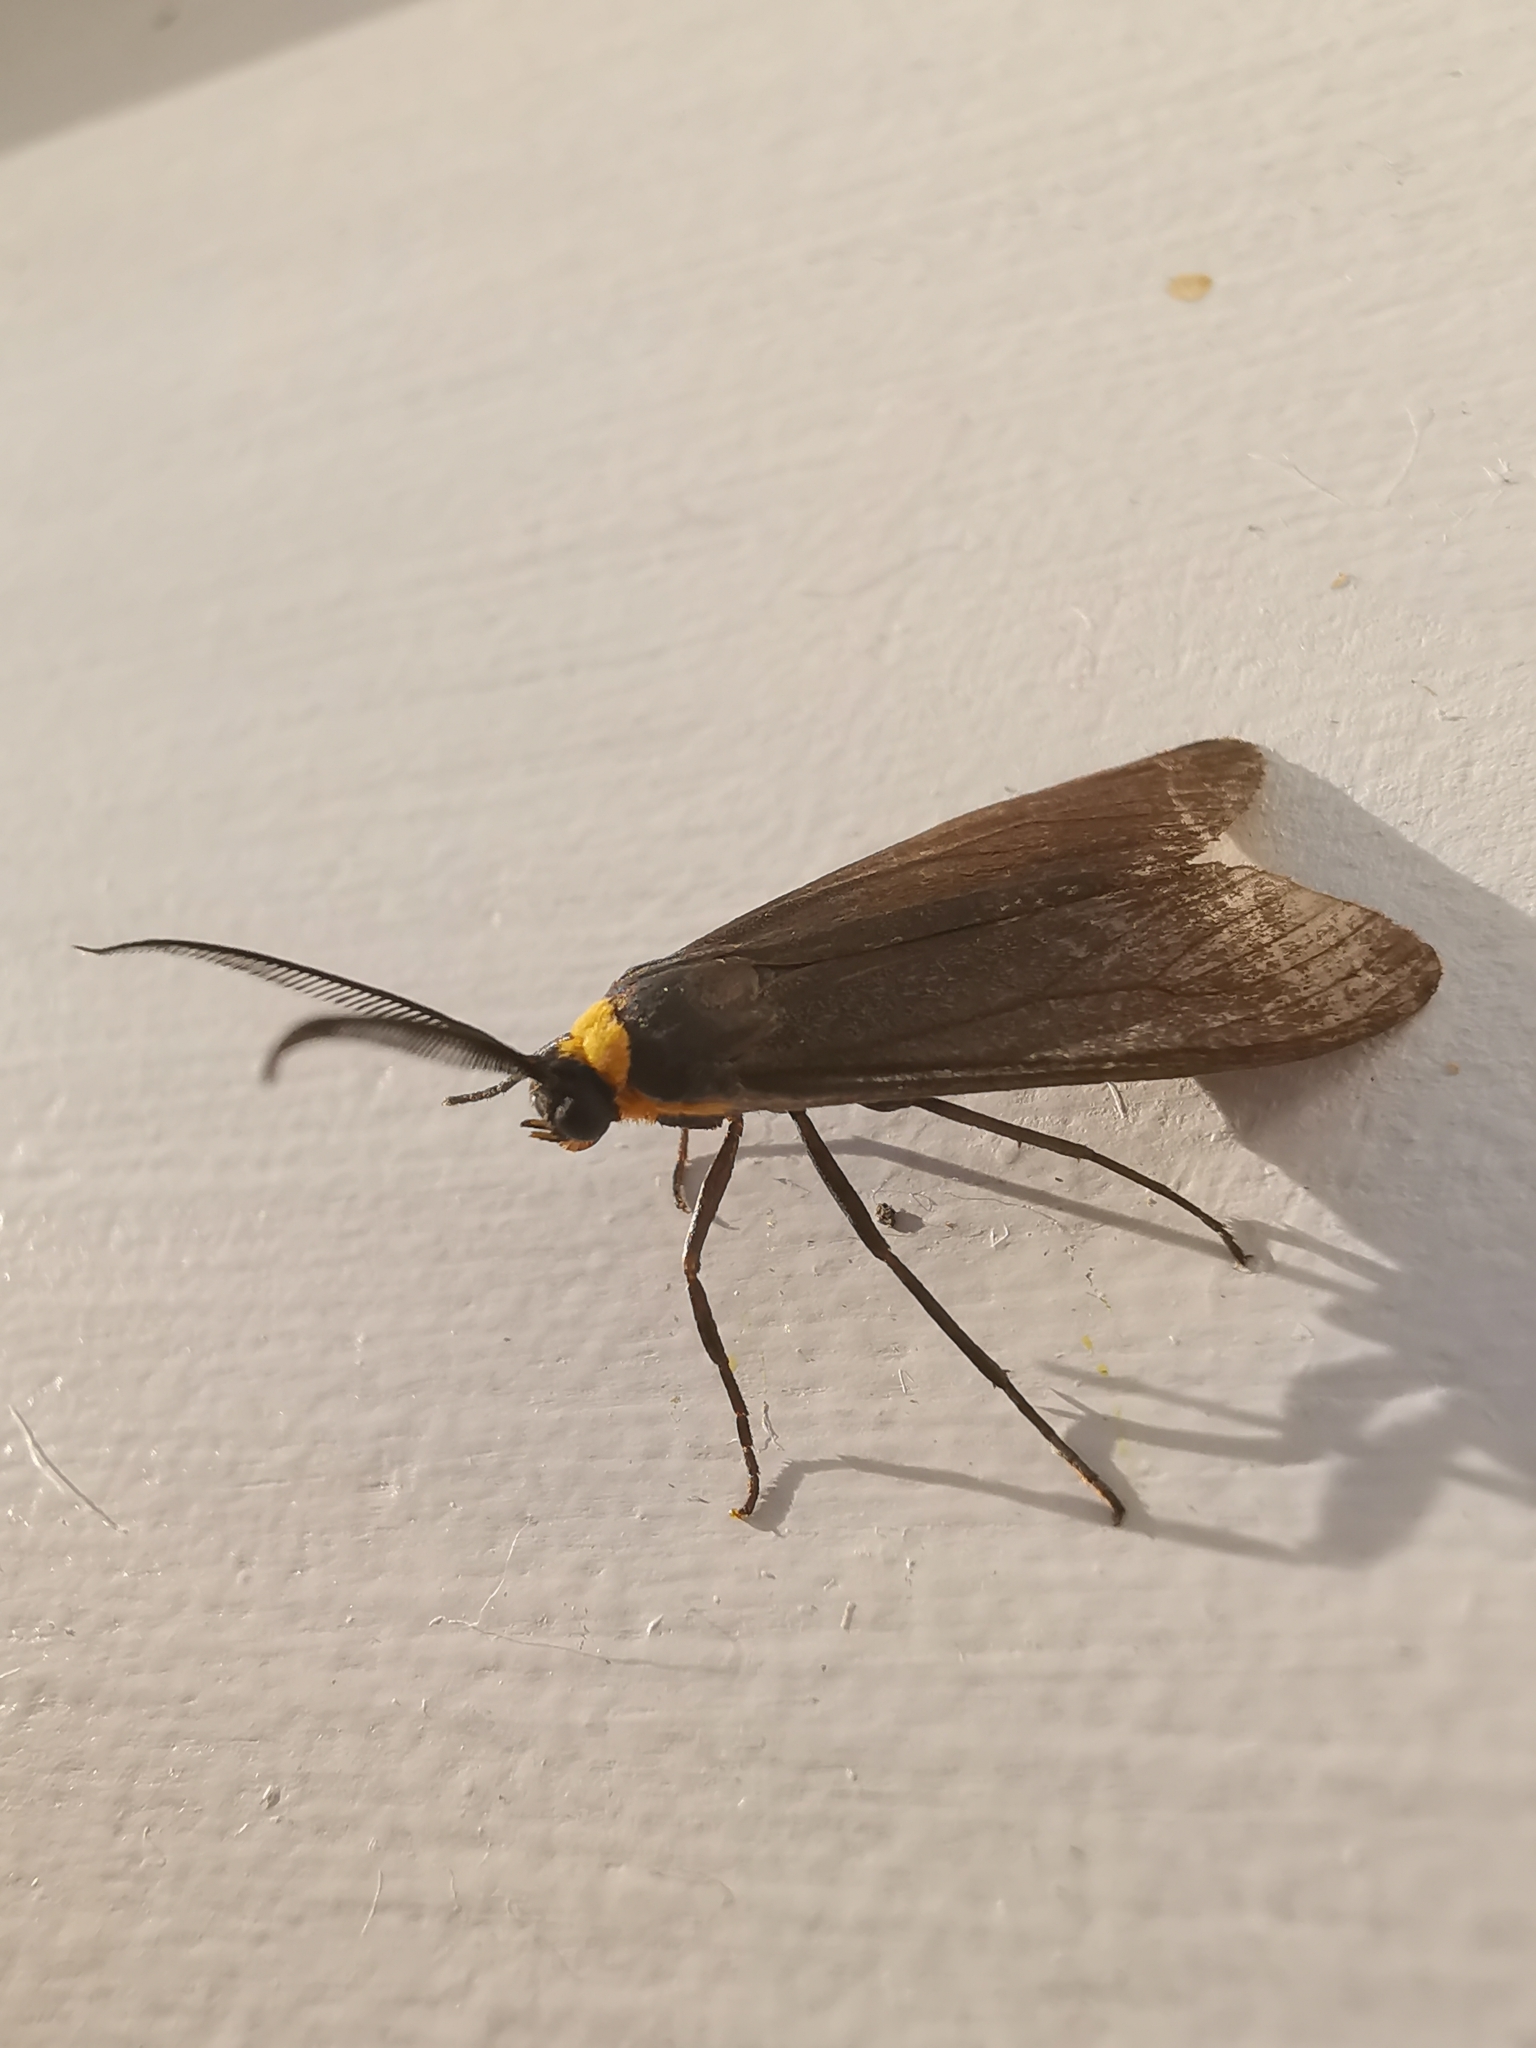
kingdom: Animalia
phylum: Arthropoda
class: Insecta
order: Lepidoptera
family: Erebidae
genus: Cisseps
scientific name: Cisseps fulvicollis
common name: Yellow-collared scape moth
